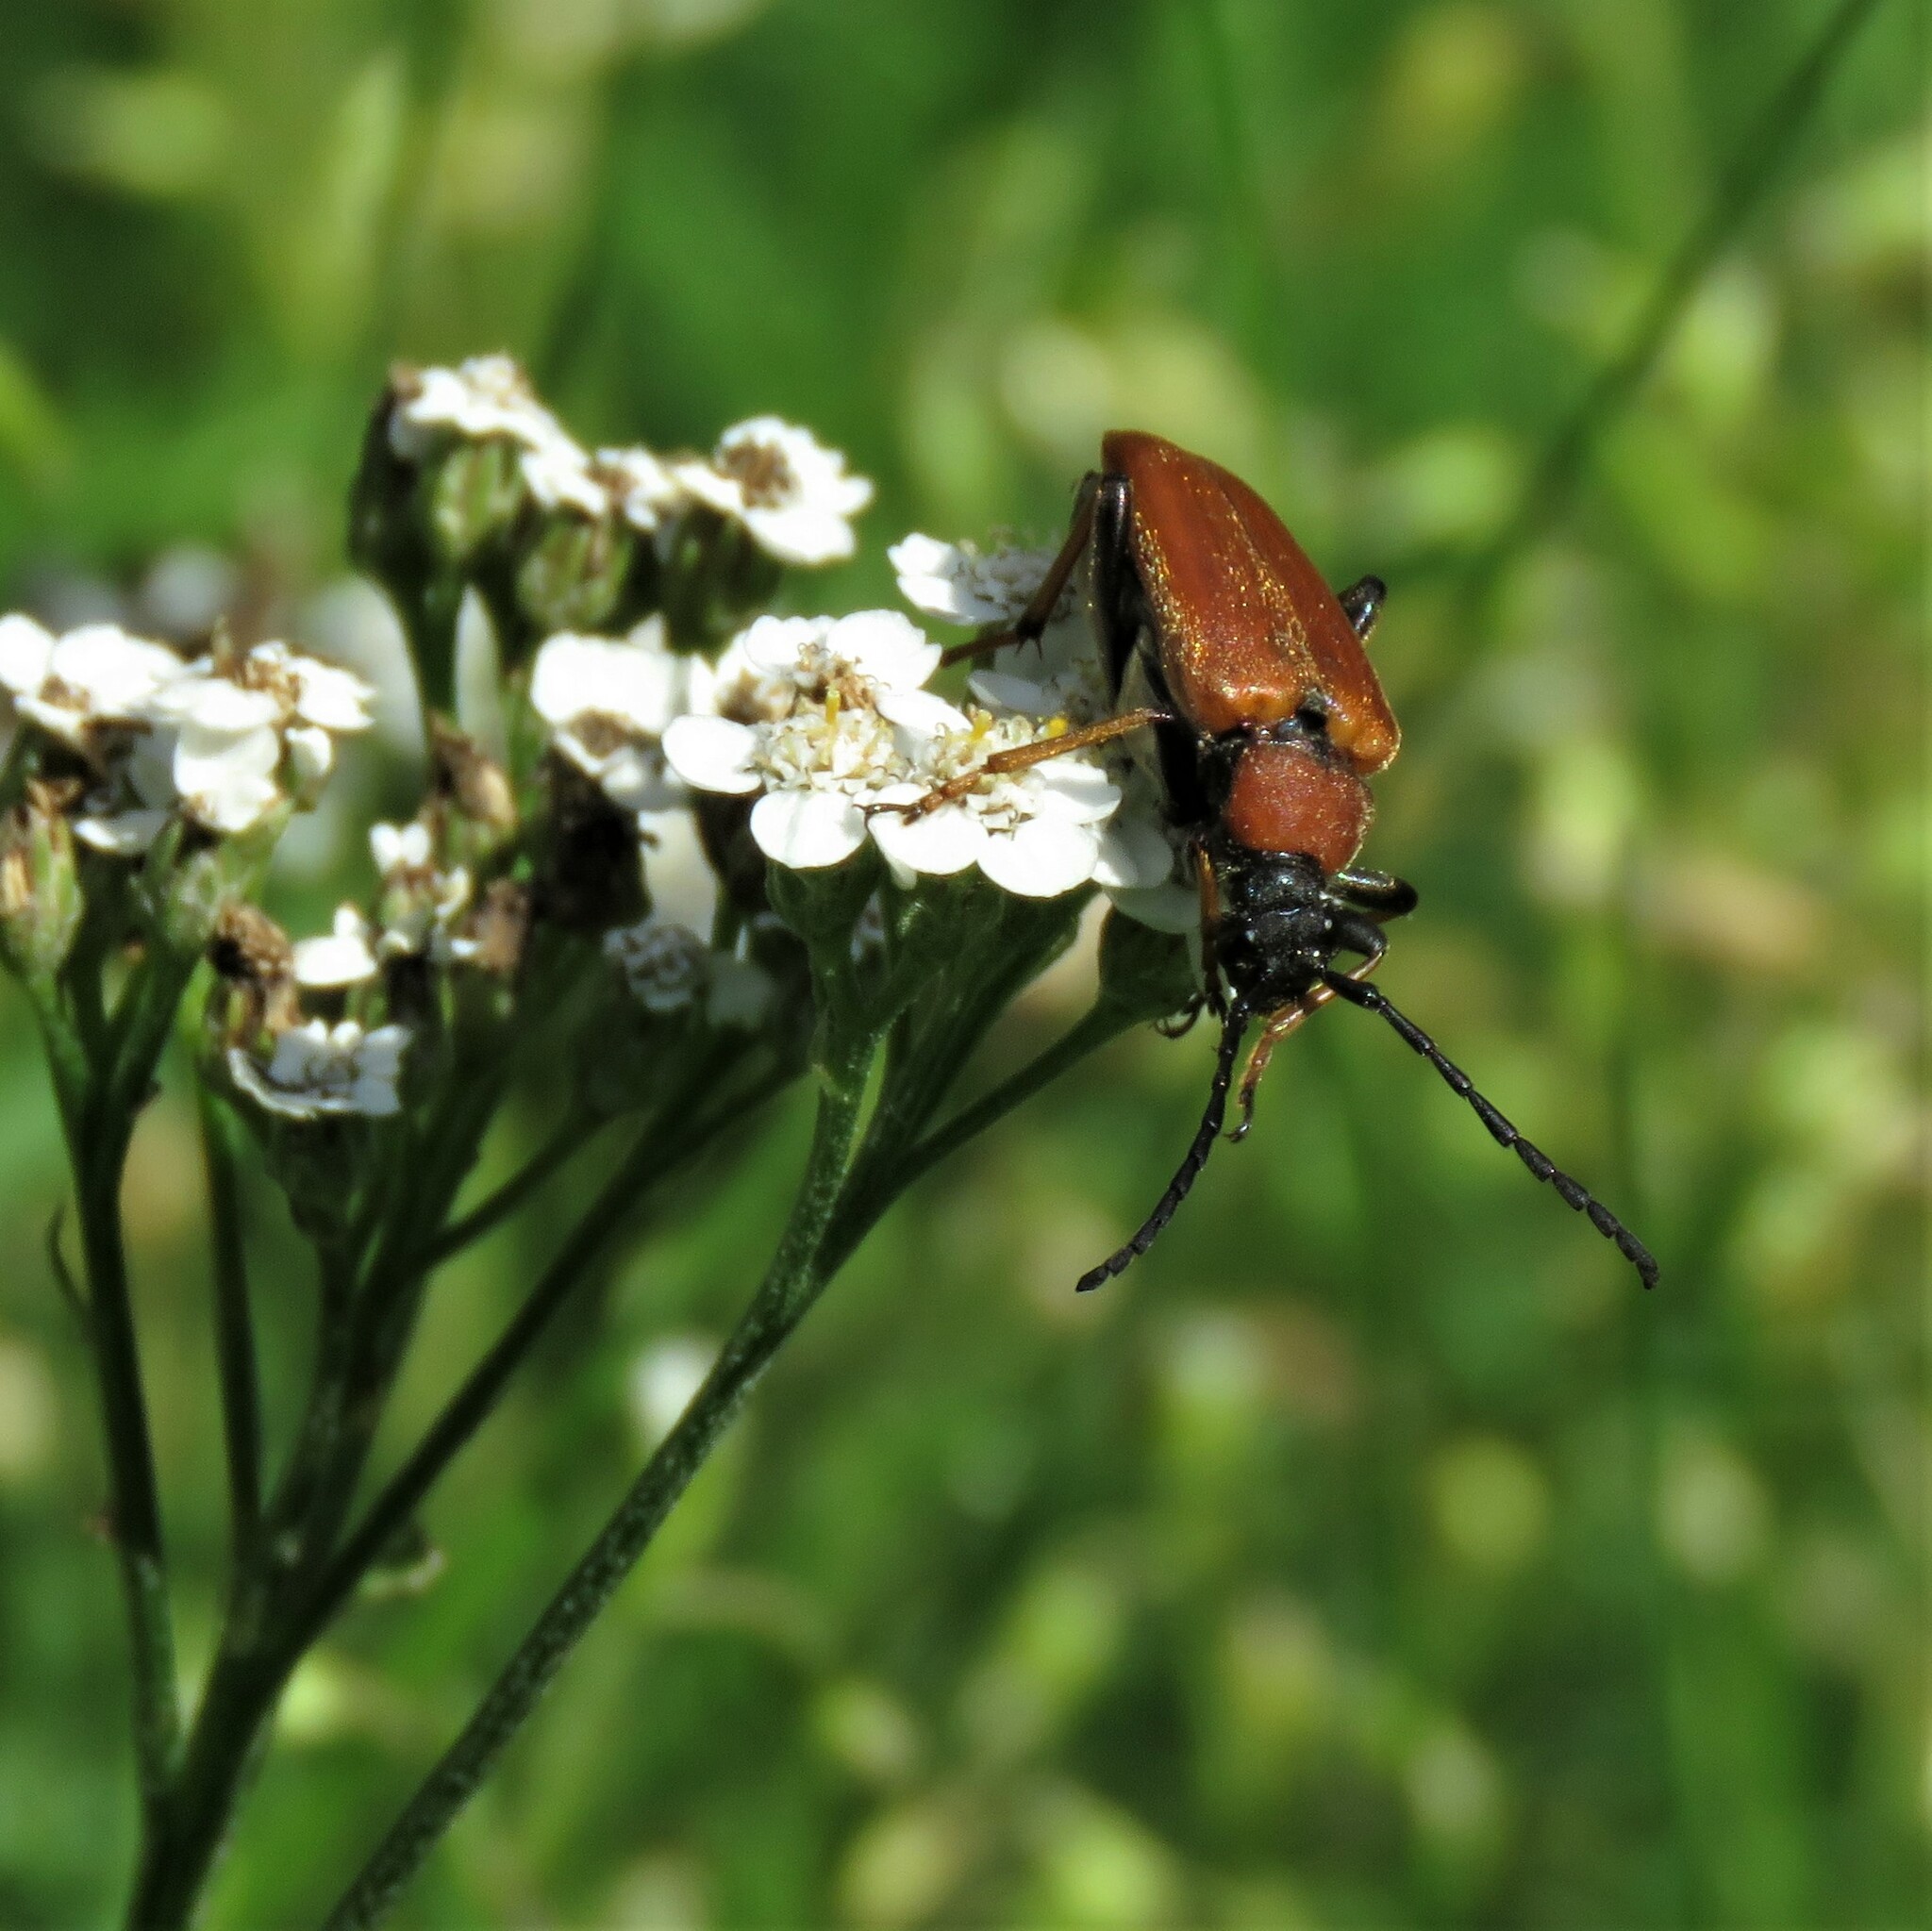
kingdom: Animalia
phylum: Arthropoda
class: Insecta
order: Coleoptera
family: Cerambycidae
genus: Stictoleptura
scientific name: Stictoleptura rubra
